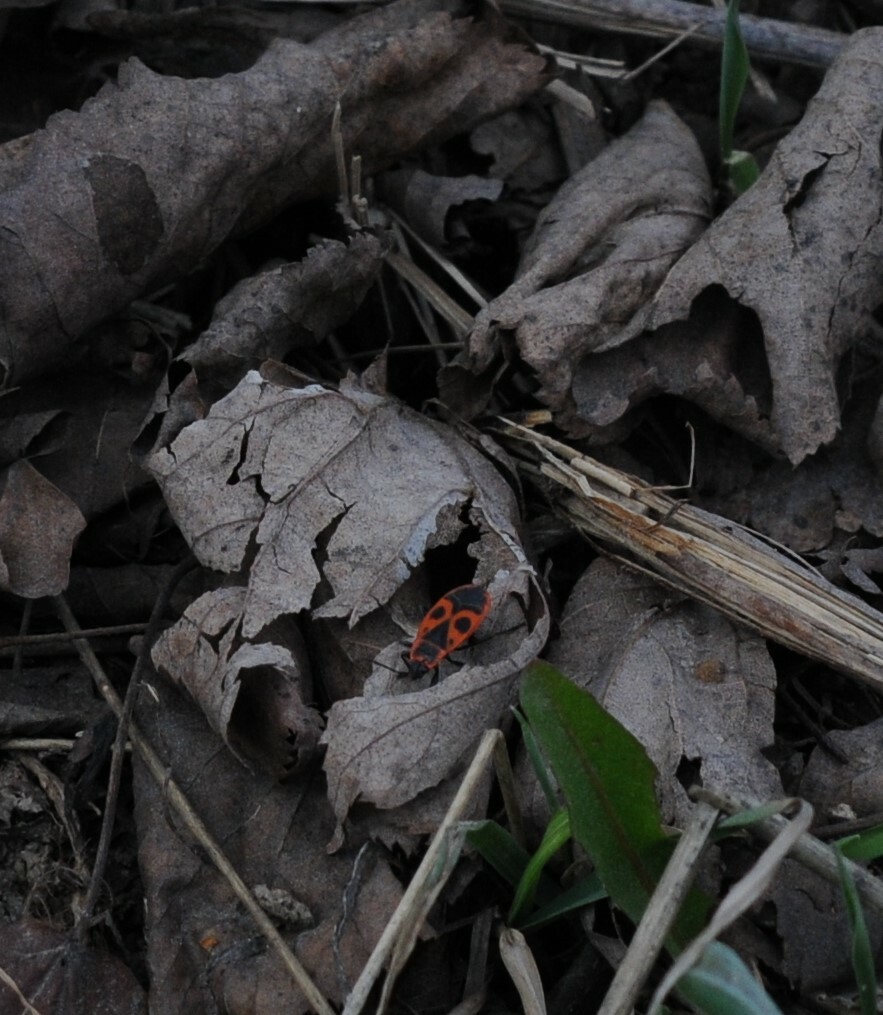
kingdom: Animalia
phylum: Arthropoda
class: Insecta
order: Hemiptera
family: Pyrrhocoridae
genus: Pyrrhocoris
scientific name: Pyrrhocoris apterus
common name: Firebug
